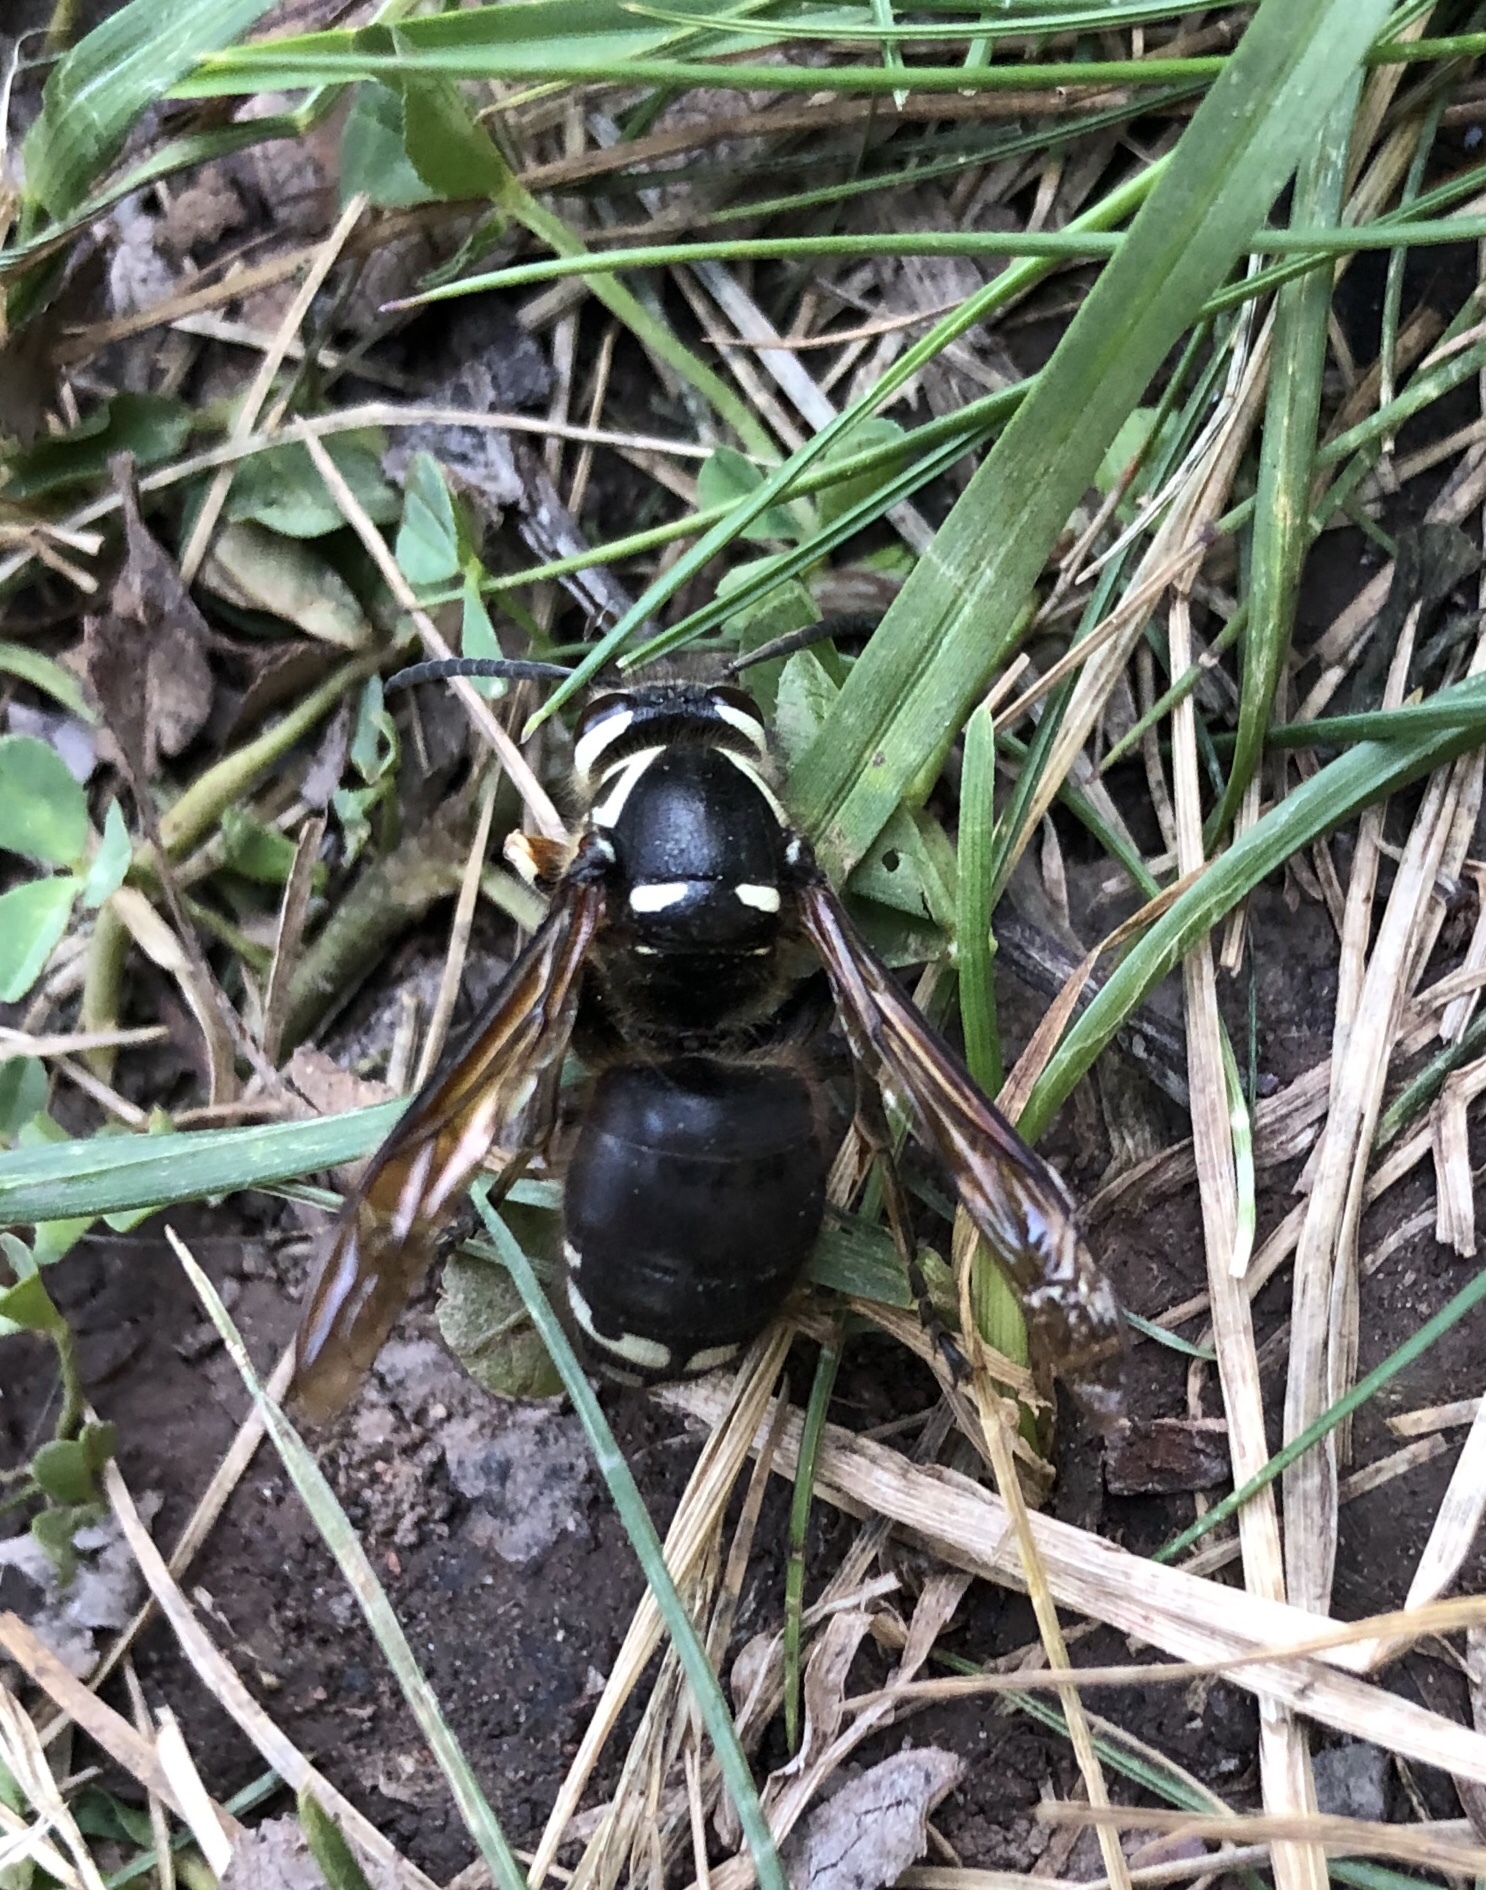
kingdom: Animalia
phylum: Arthropoda
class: Insecta
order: Hymenoptera
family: Vespidae
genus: Dolichovespula
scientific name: Dolichovespula maculata
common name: Bald-faced hornet
